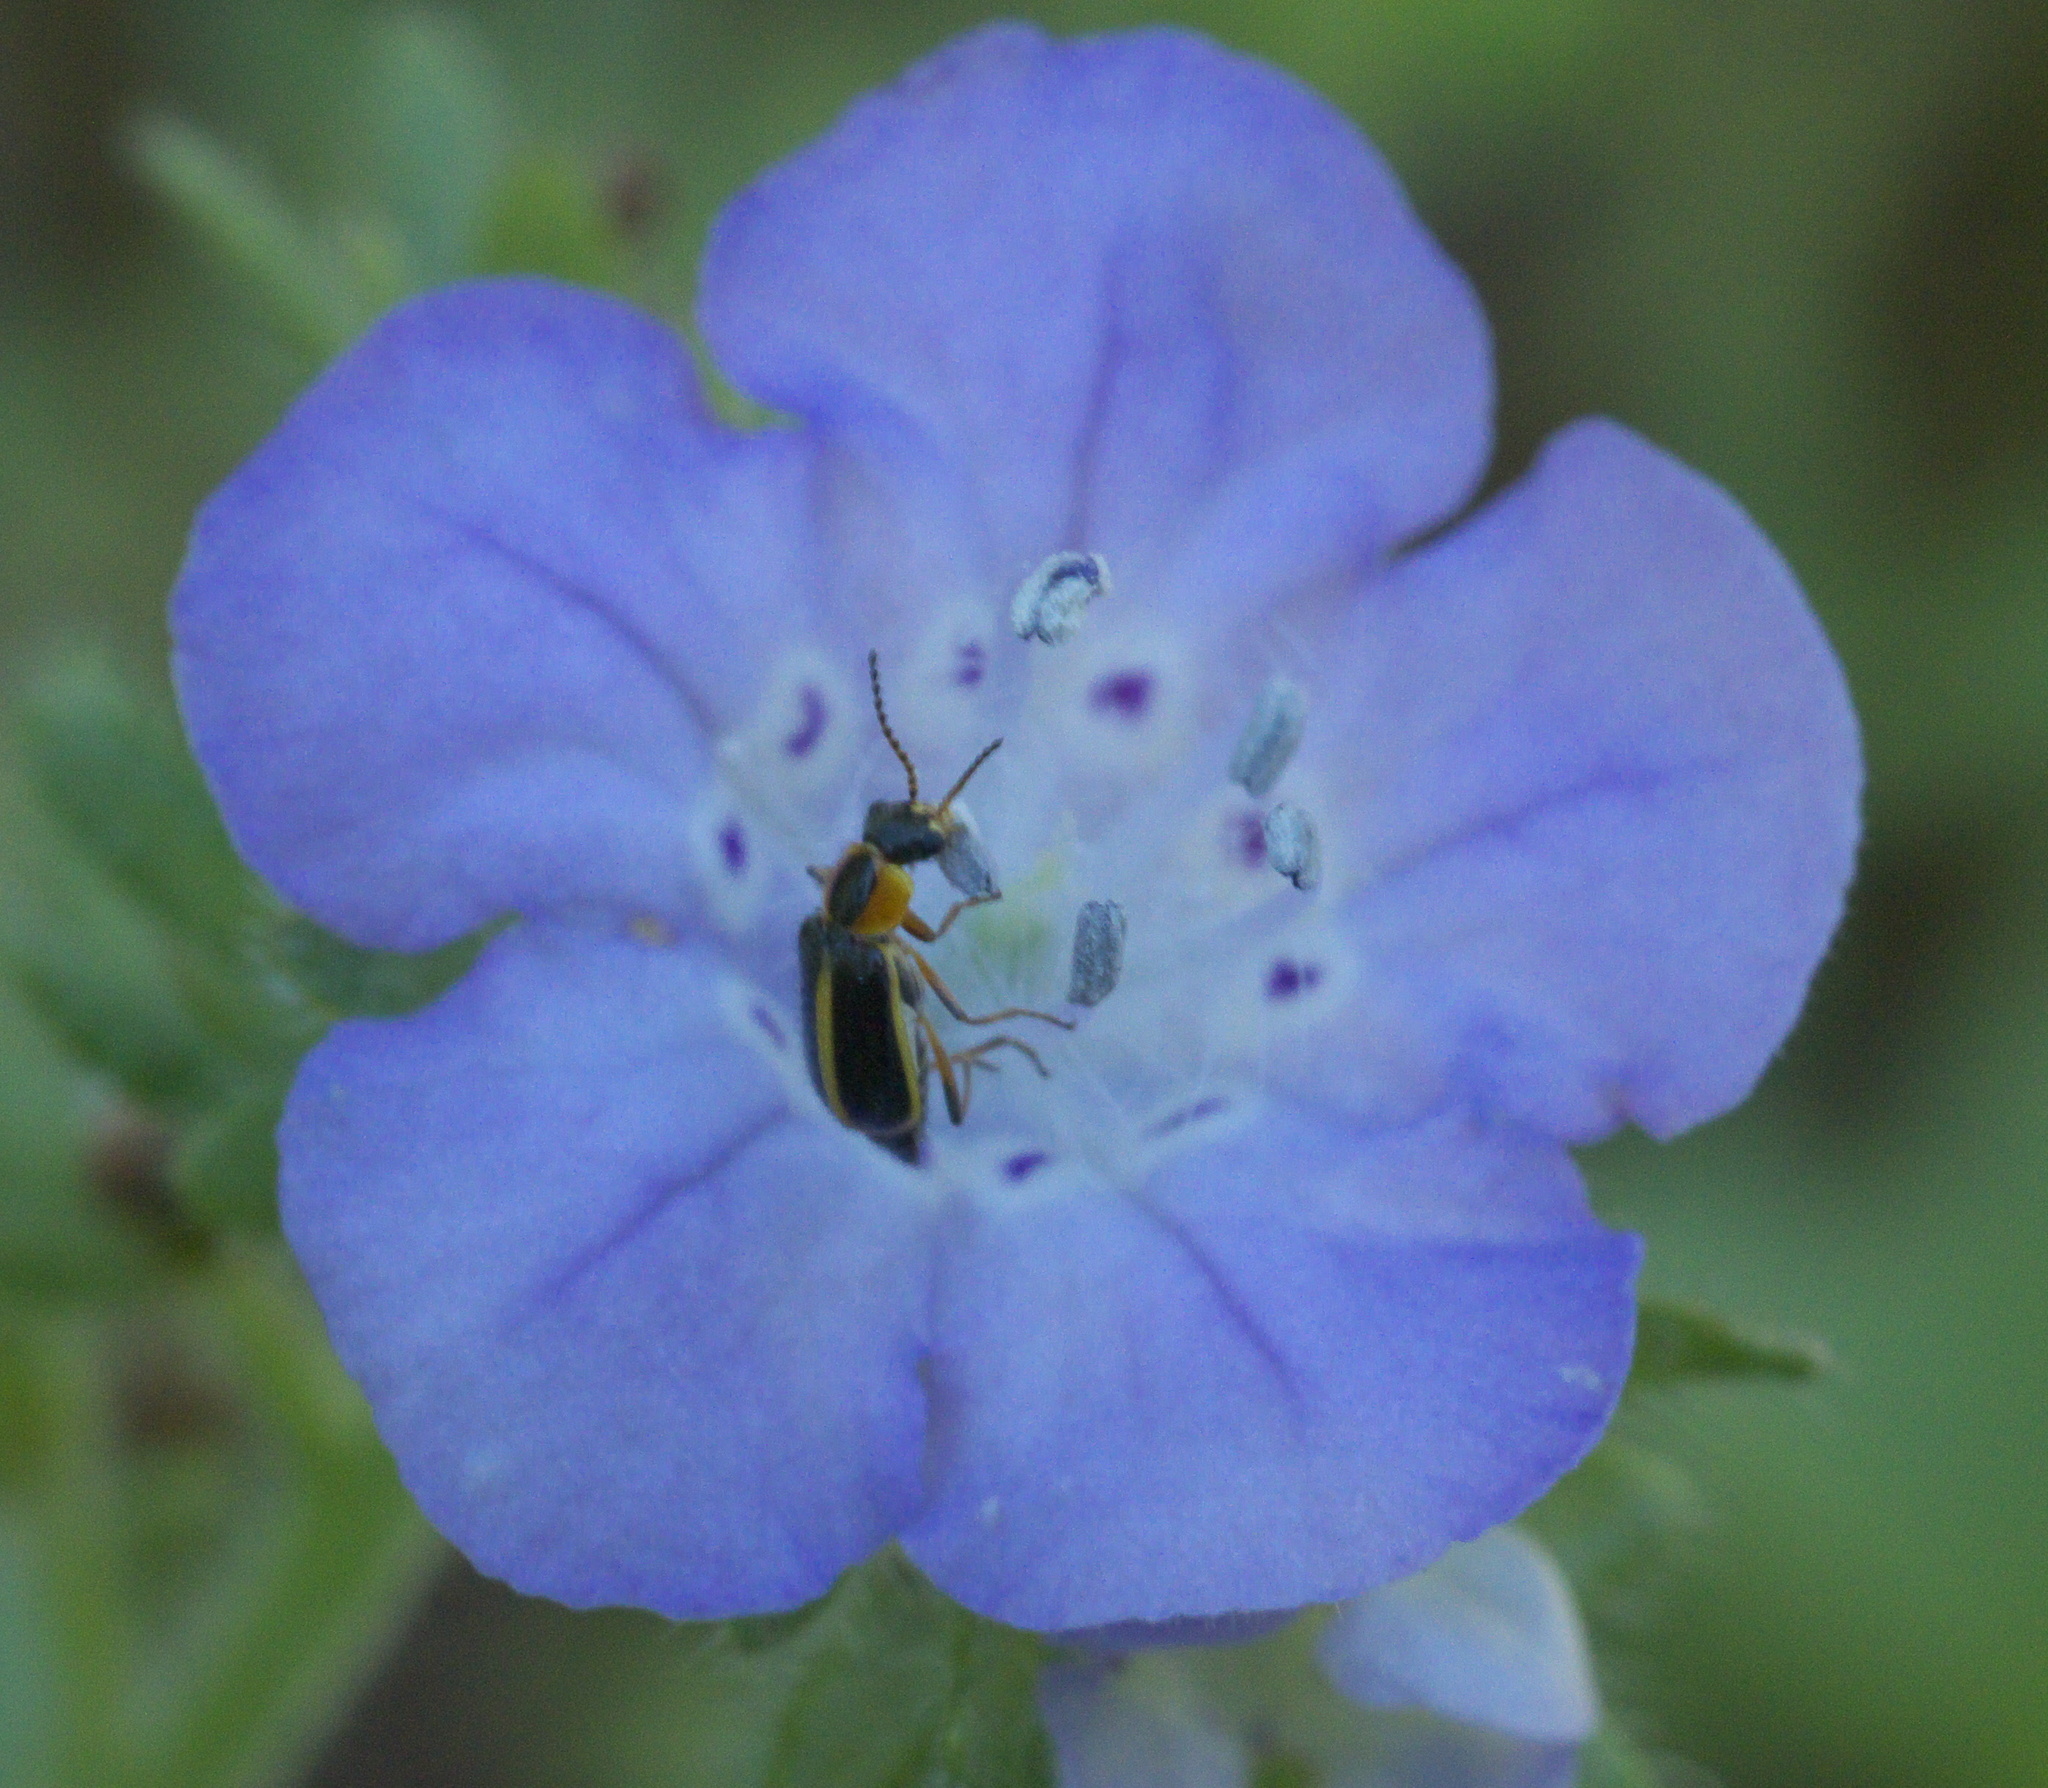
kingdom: Animalia
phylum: Arthropoda
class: Insecta
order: Coleoptera
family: Malachiidae
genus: Attalus
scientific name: Attalus
